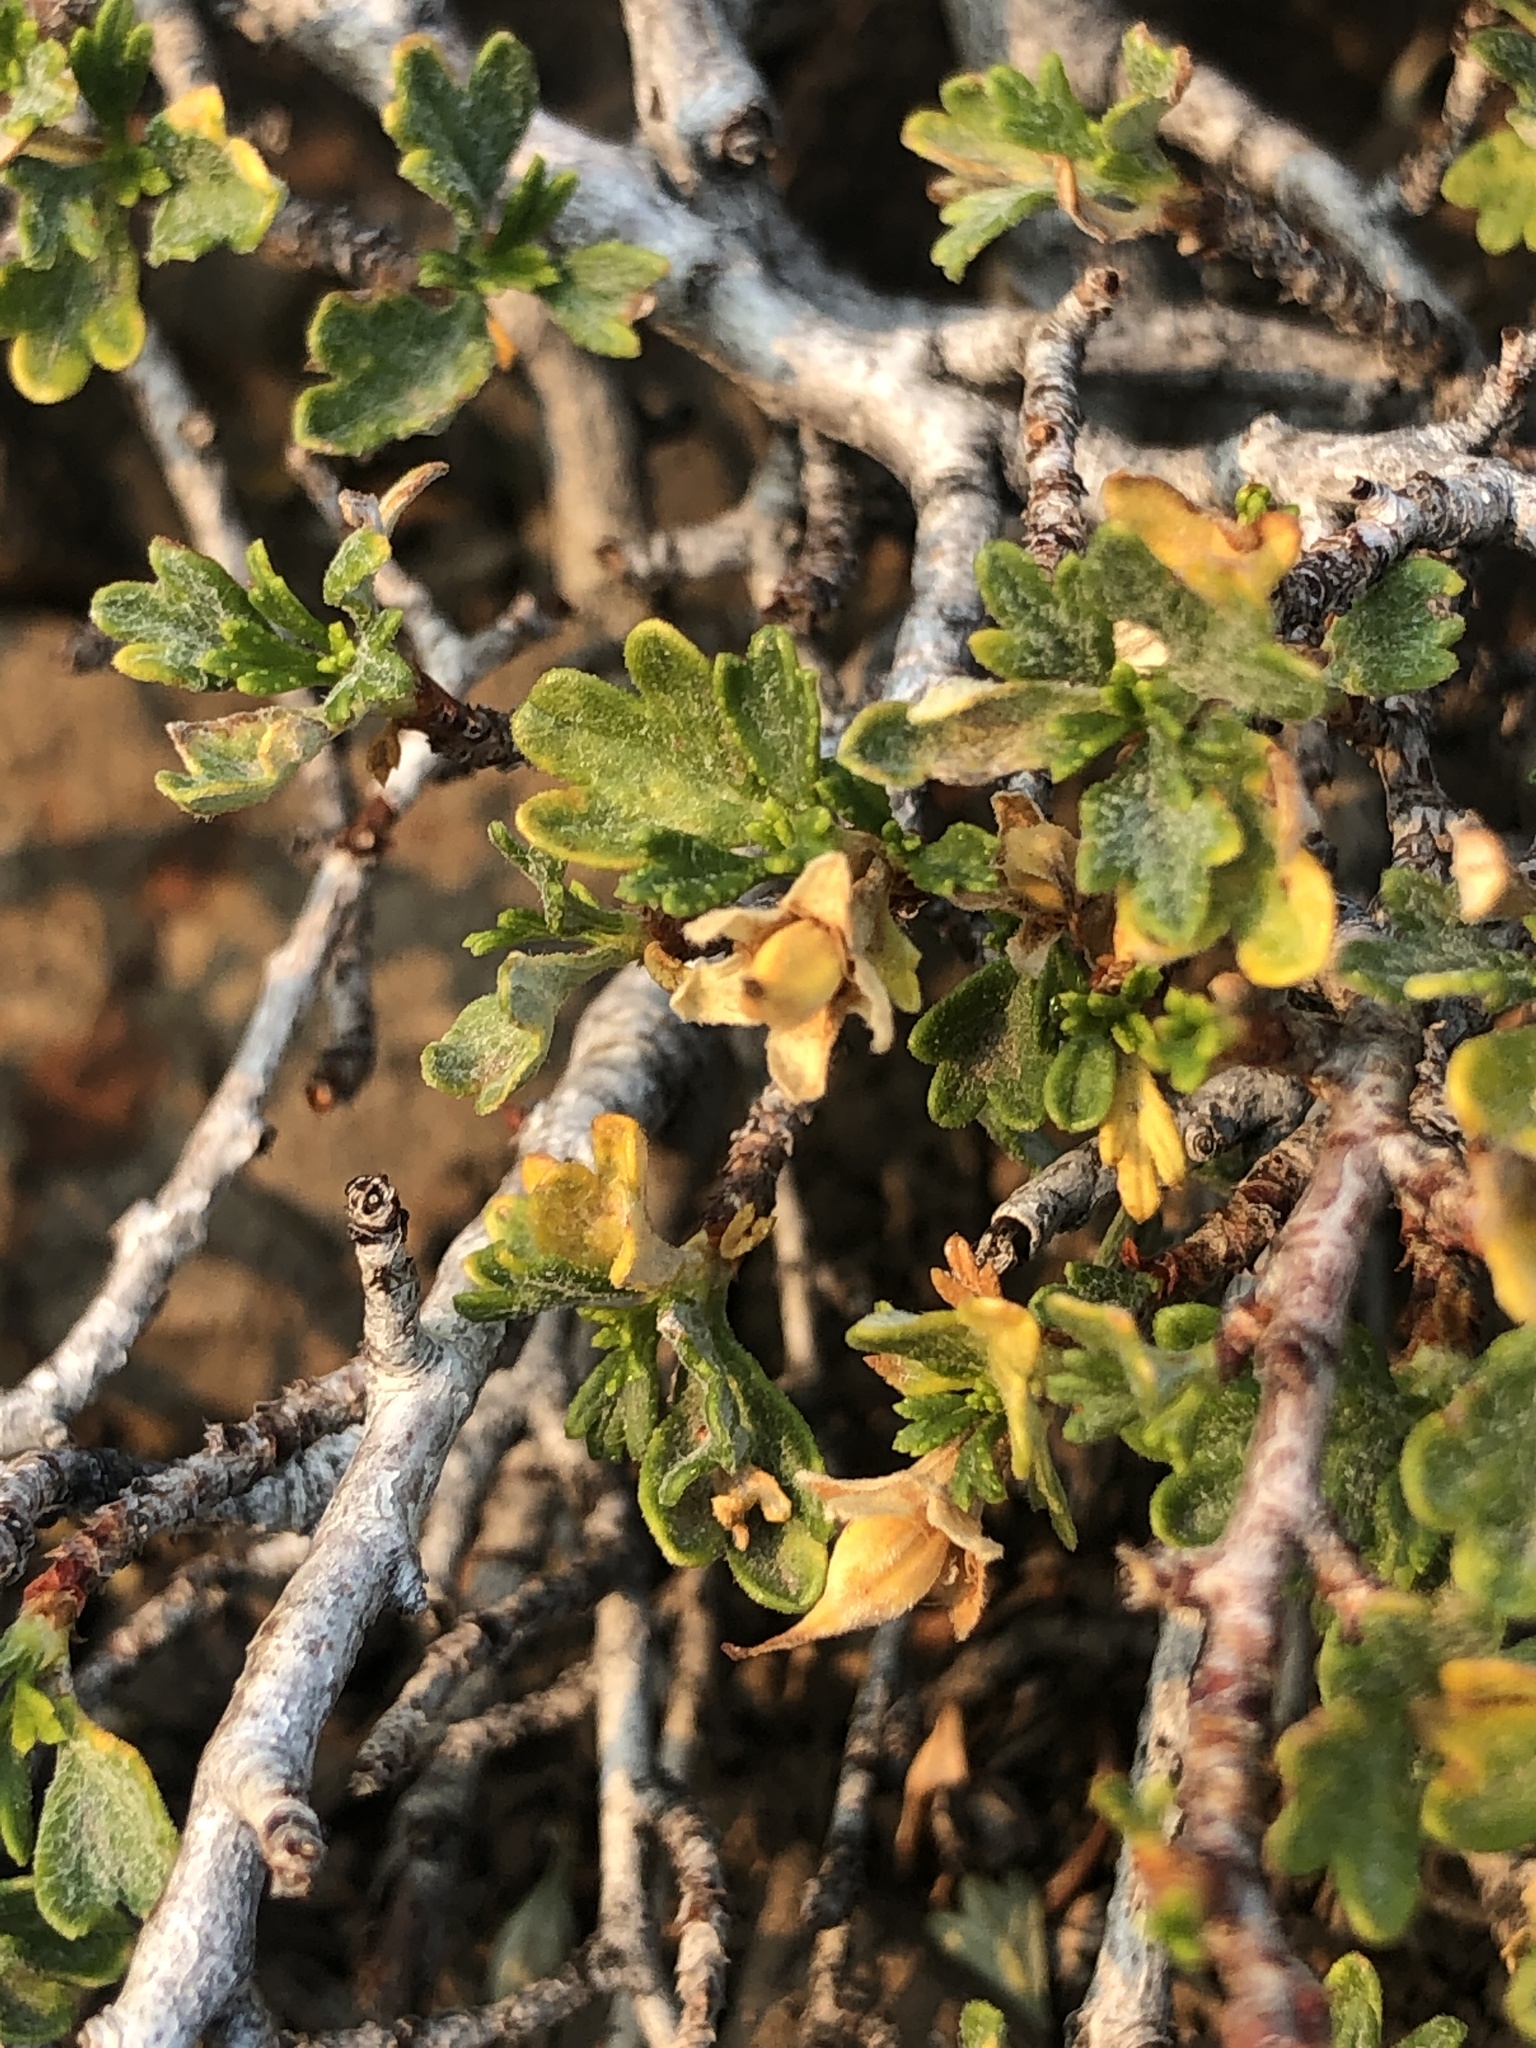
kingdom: Plantae
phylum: Tracheophyta
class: Magnoliopsida
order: Rosales
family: Rosaceae
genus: Purshia
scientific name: Purshia tridentata
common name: Antelope bitterbrush
